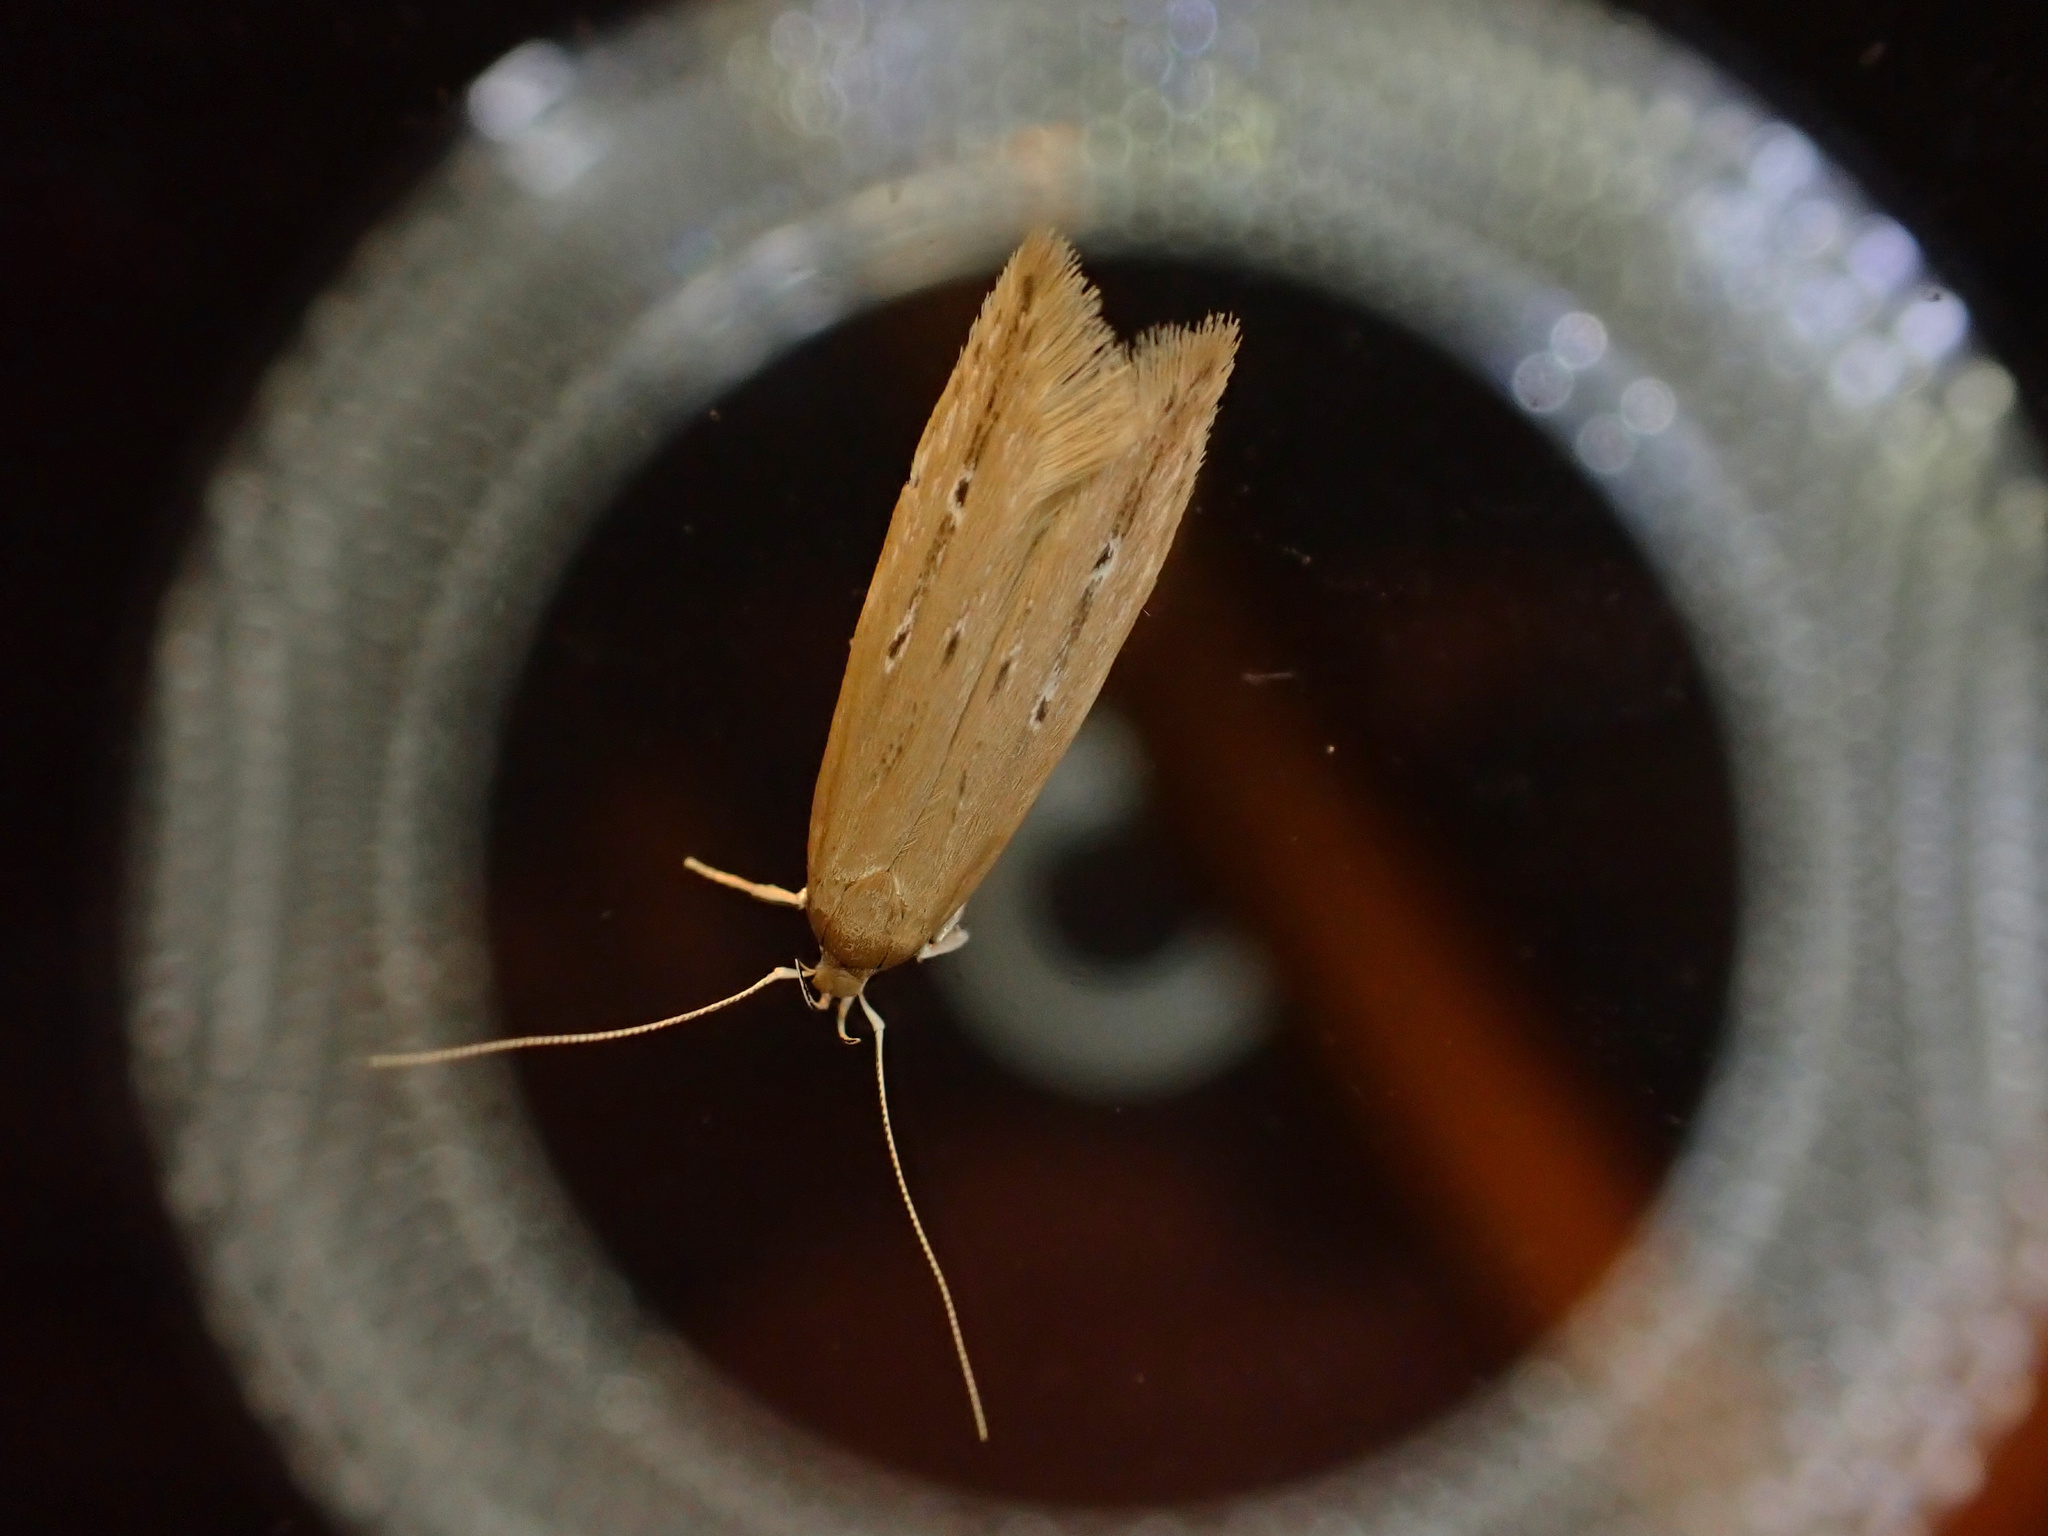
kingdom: Animalia
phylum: Arthropoda
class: Insecta
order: Lepidoptera
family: Cosmopterigidae
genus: Limnaecia
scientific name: Limnaecia phragmitella
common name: Bulrush cosmet
